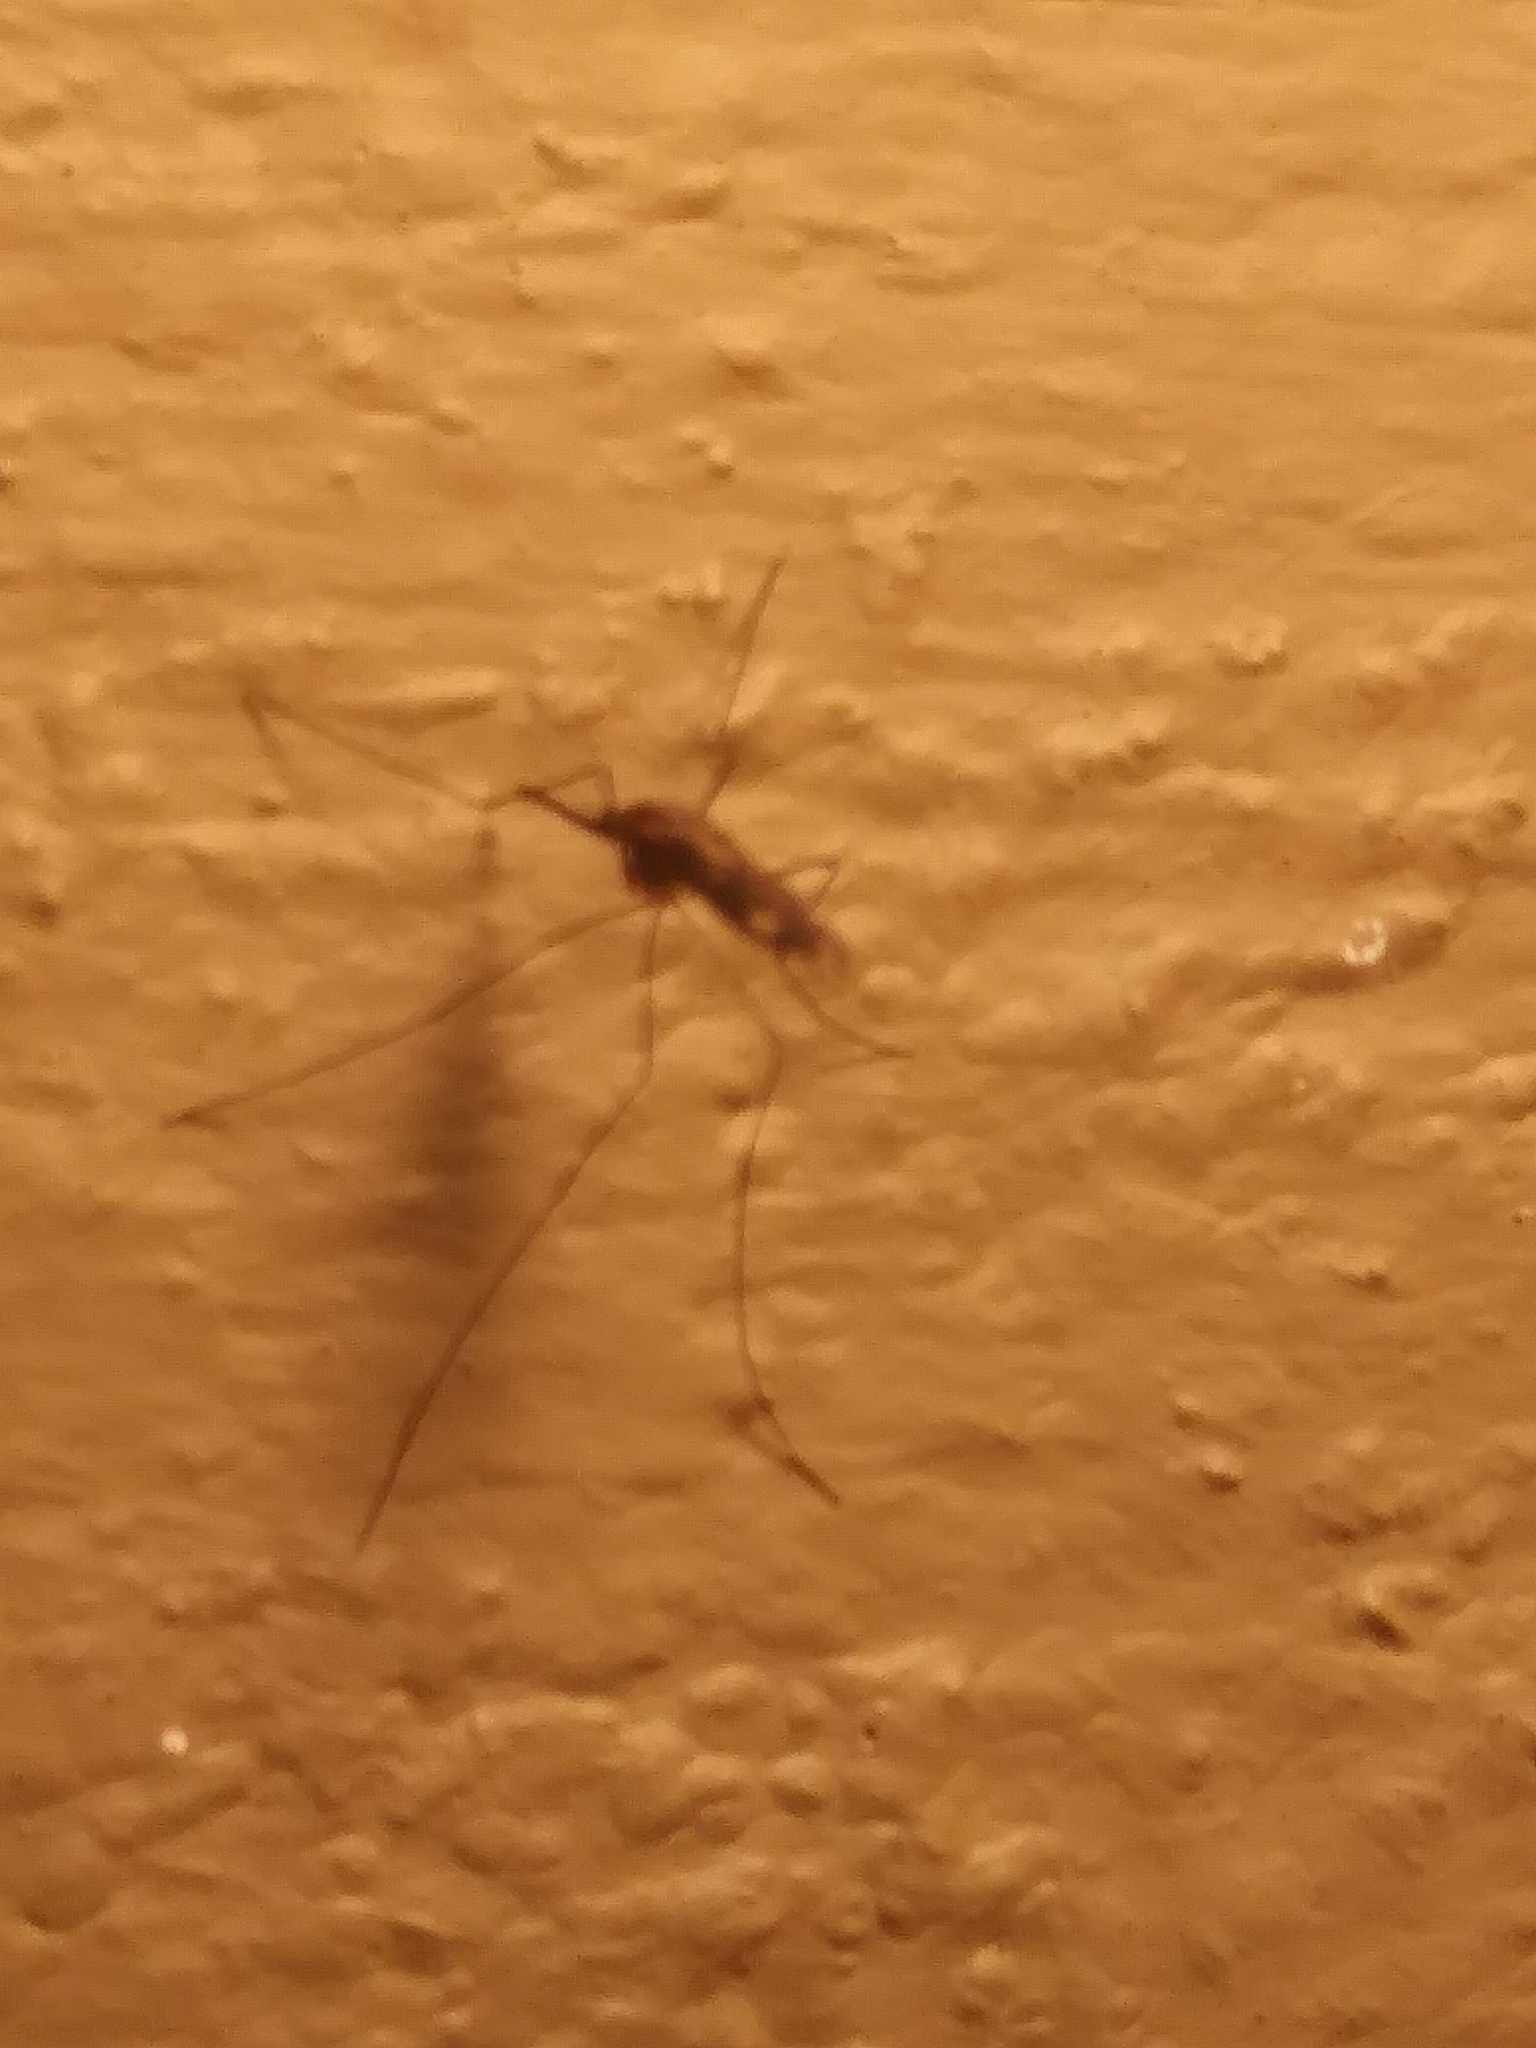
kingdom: Animalia
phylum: Arthropoda
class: Insecta
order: Diptera
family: Culicidae
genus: Anopheles
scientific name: Anopheles punctipennis
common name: Woodland malaria mosquito
